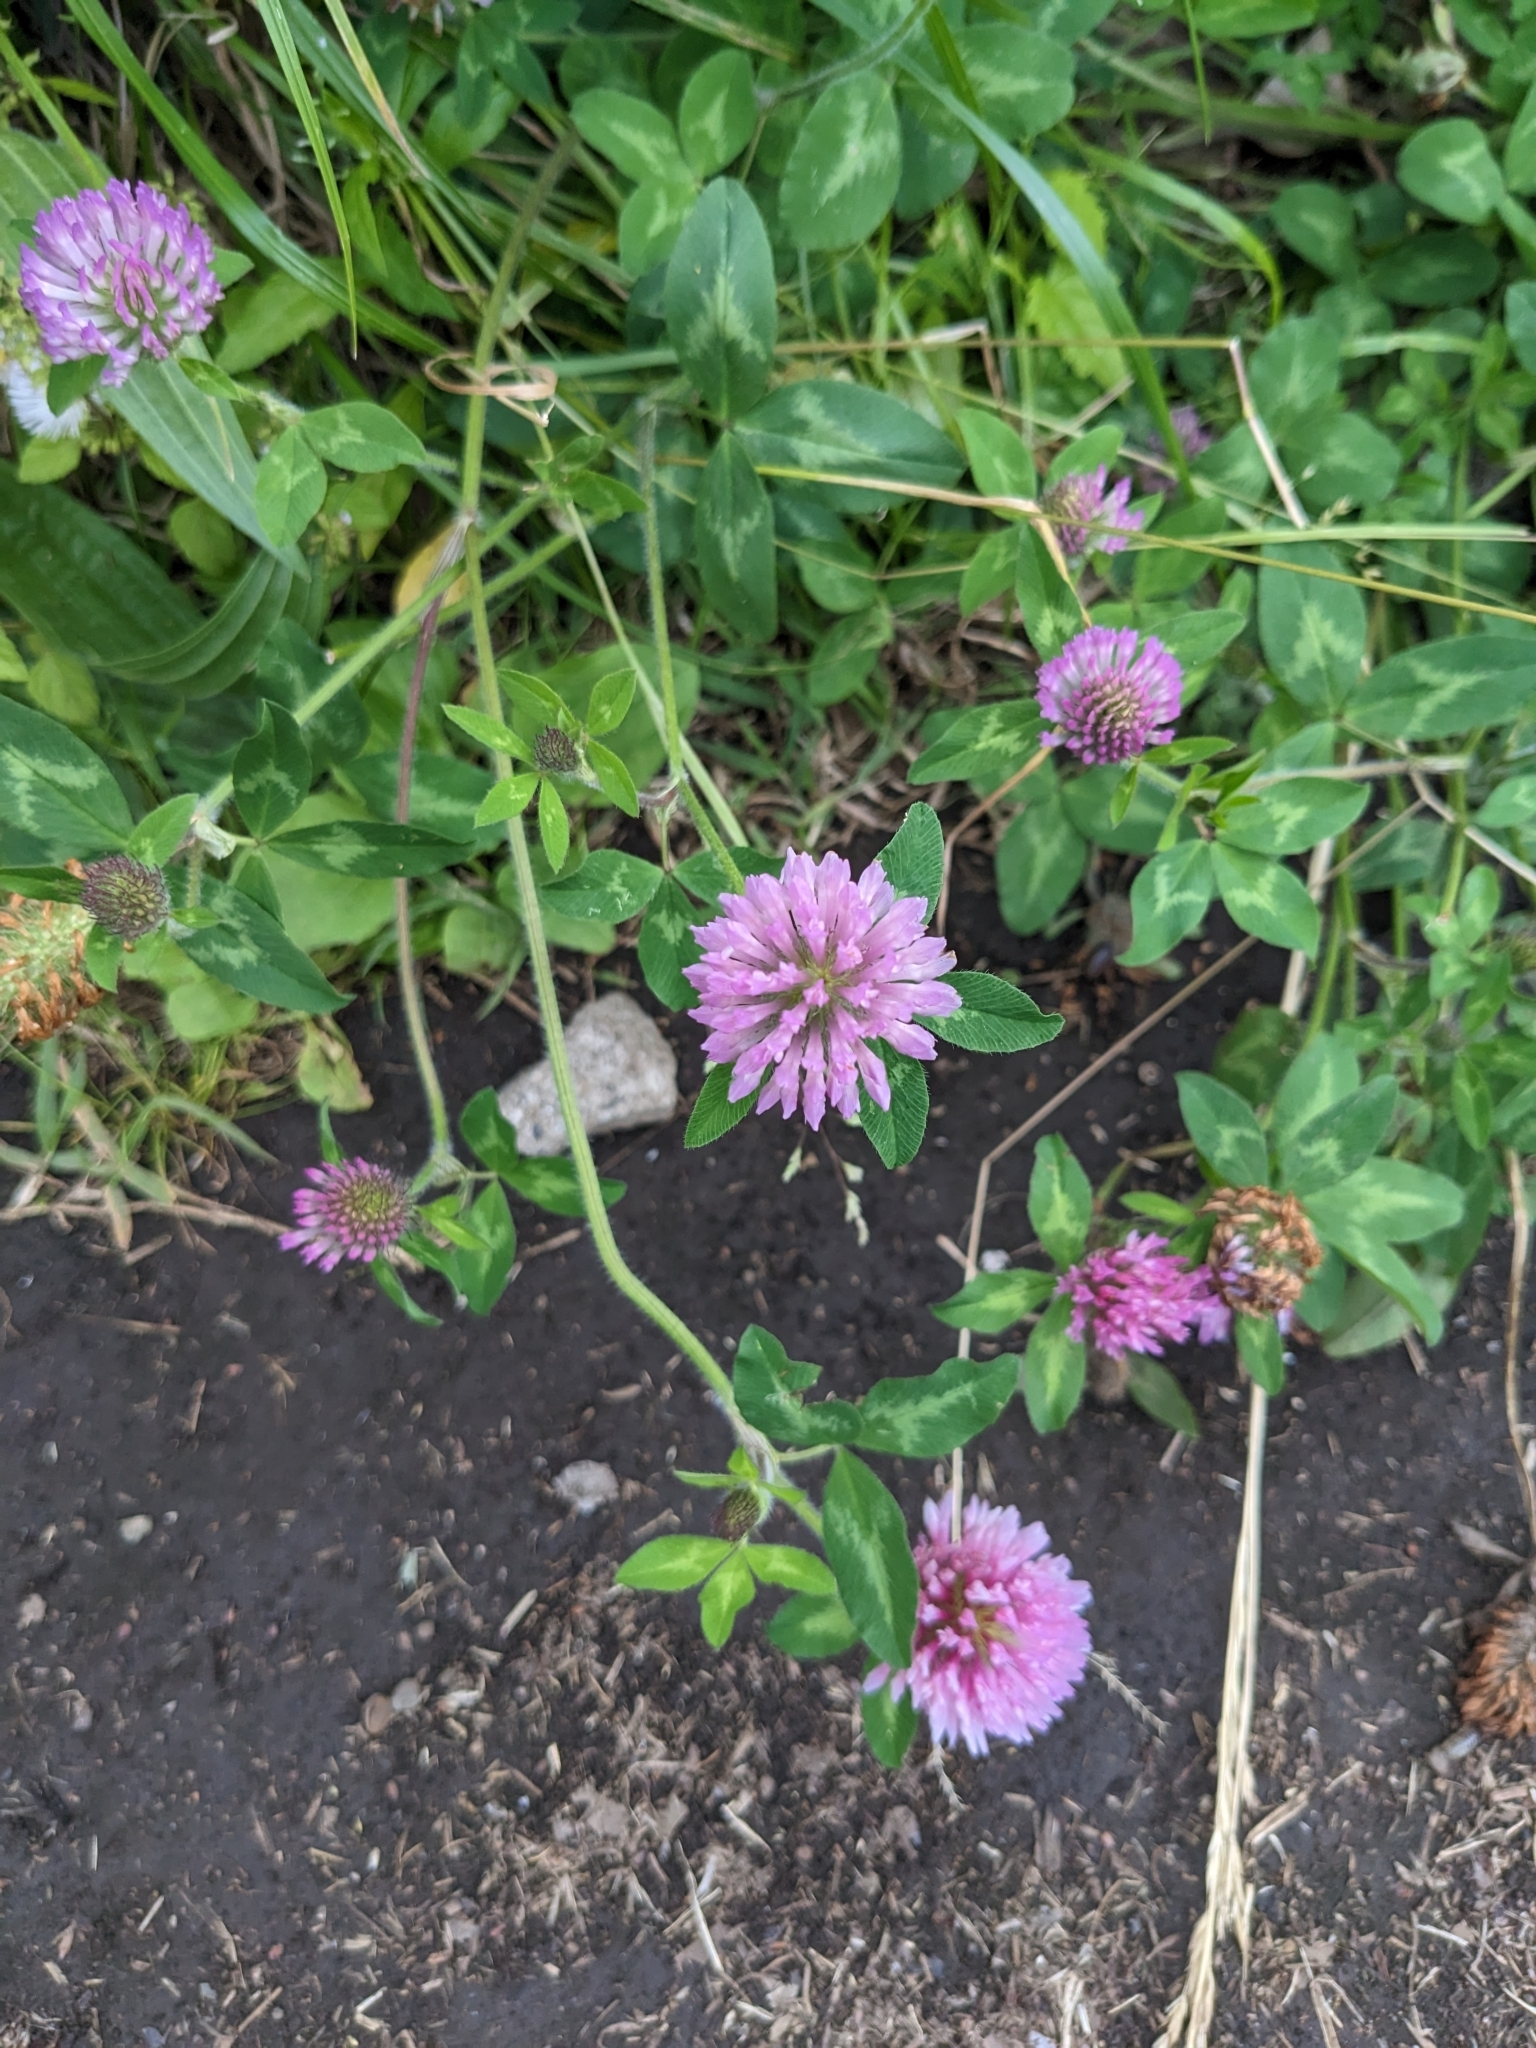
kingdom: Plantae
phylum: Tracheophyta
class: Magnoliopsida
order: Fabales
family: Fabaceae
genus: Trifolium
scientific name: Trifolium pratense
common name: Red clover
